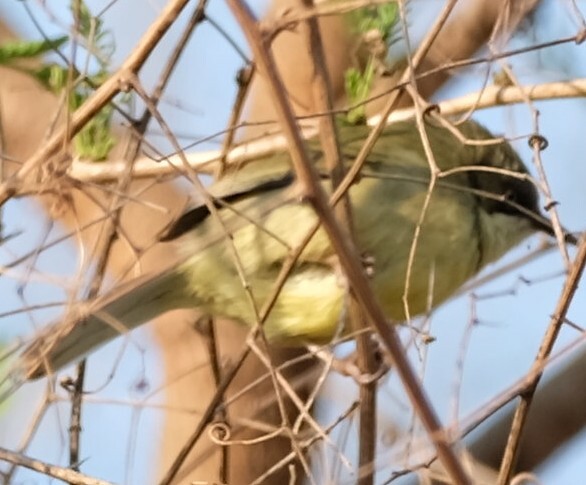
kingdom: Animalia
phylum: Chordata
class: Aves
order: Passeriformes
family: Cisticolidae
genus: Apalis
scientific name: Apalis thoracica
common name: Bar-throated apalis
